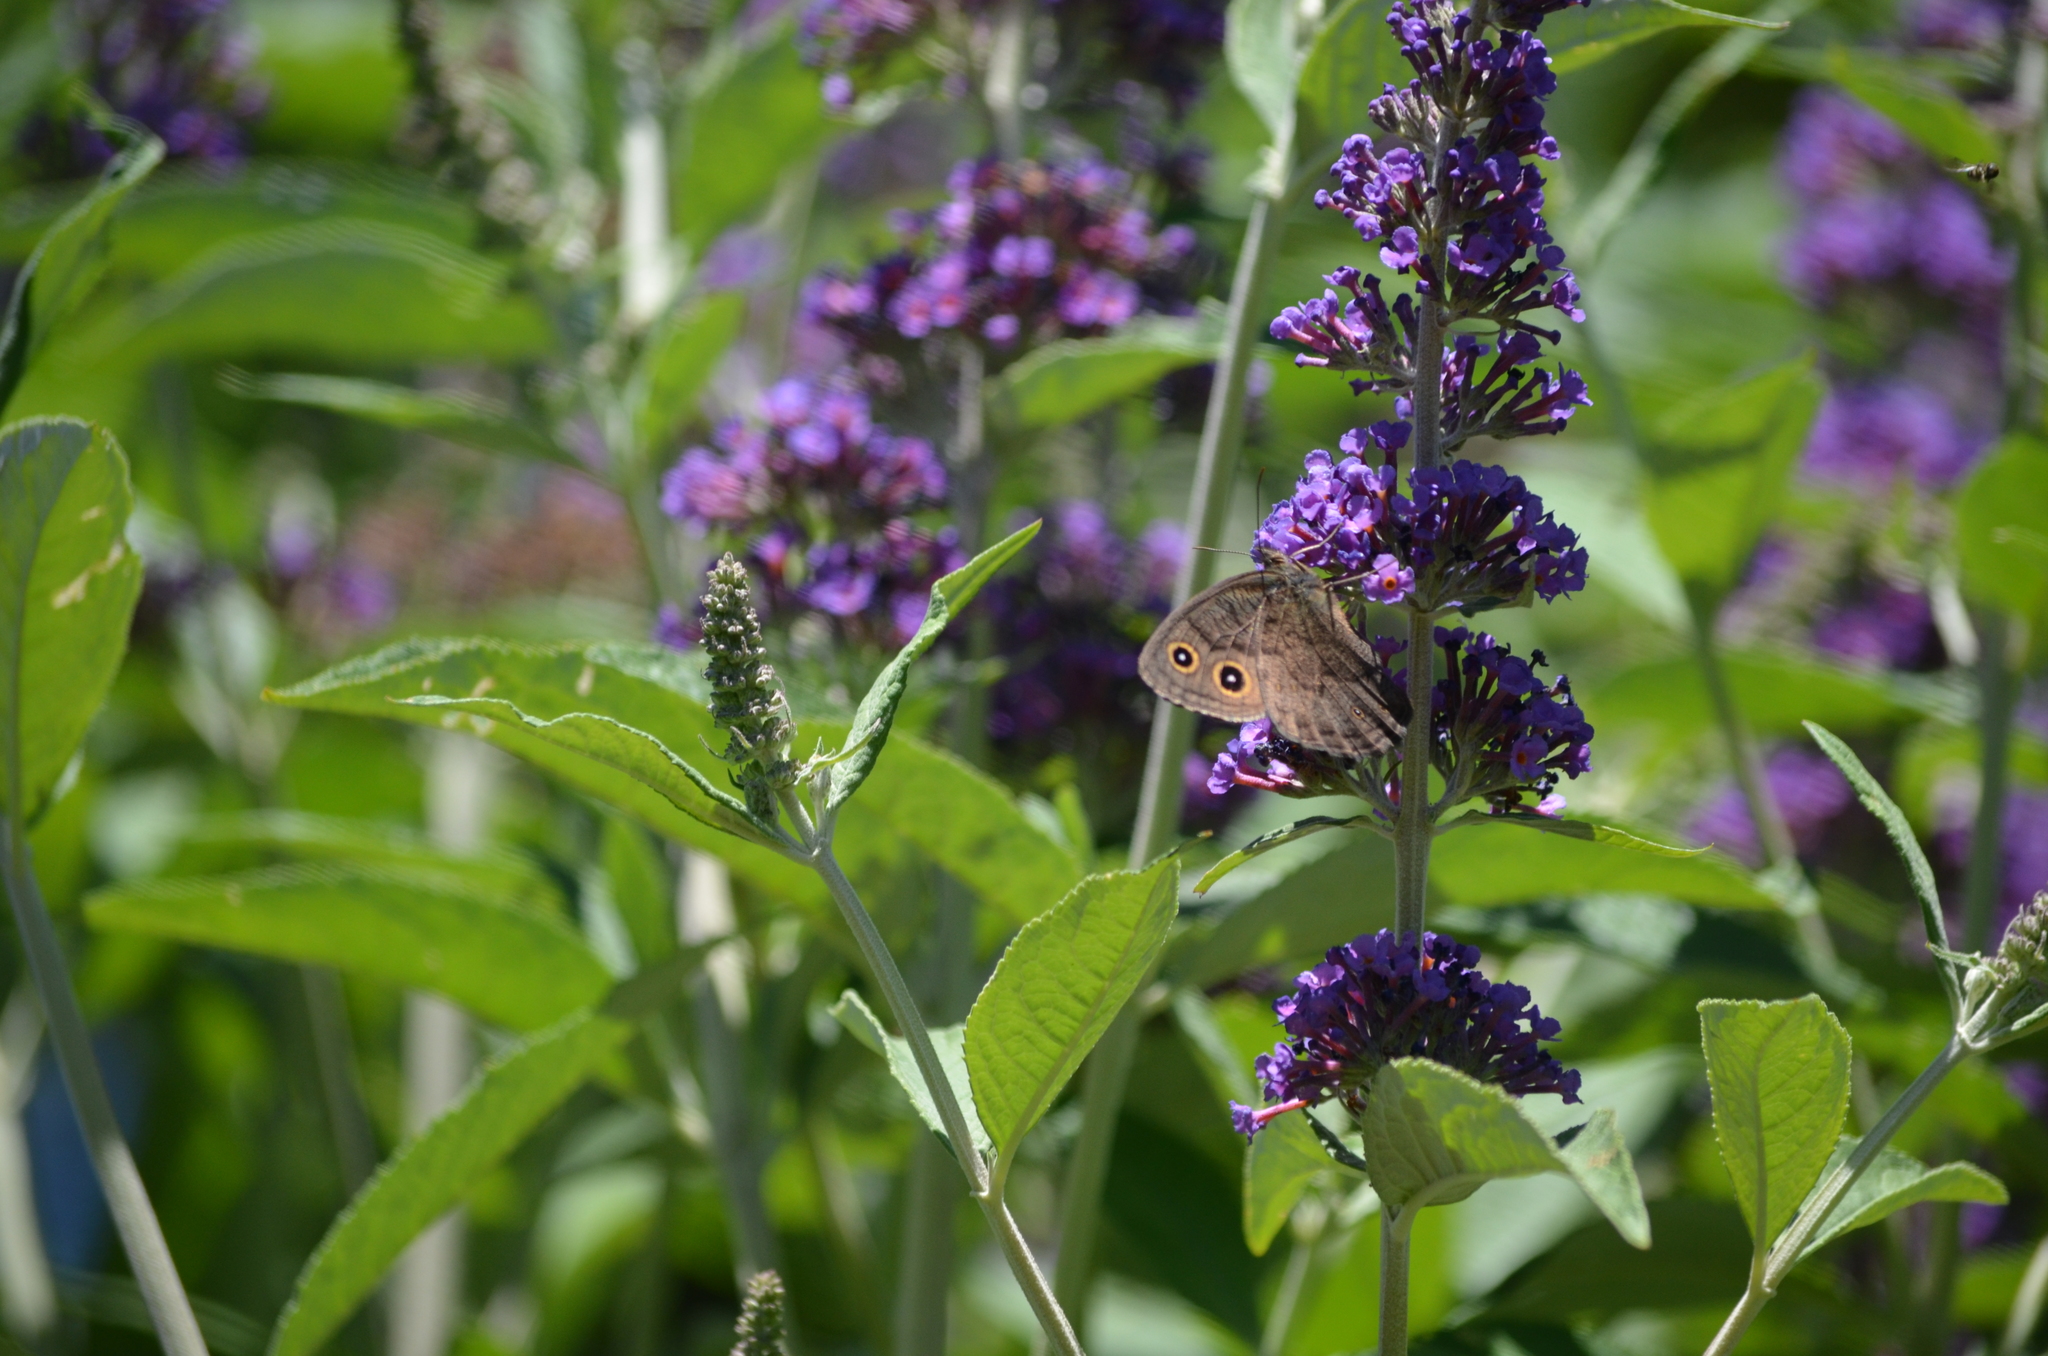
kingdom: Animalia
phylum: Arthropoda
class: Insecta
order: Lepidoptera
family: Nymphalidae
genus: Cercyonis
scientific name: Cercyonis pegala
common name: Common wood-nymph
